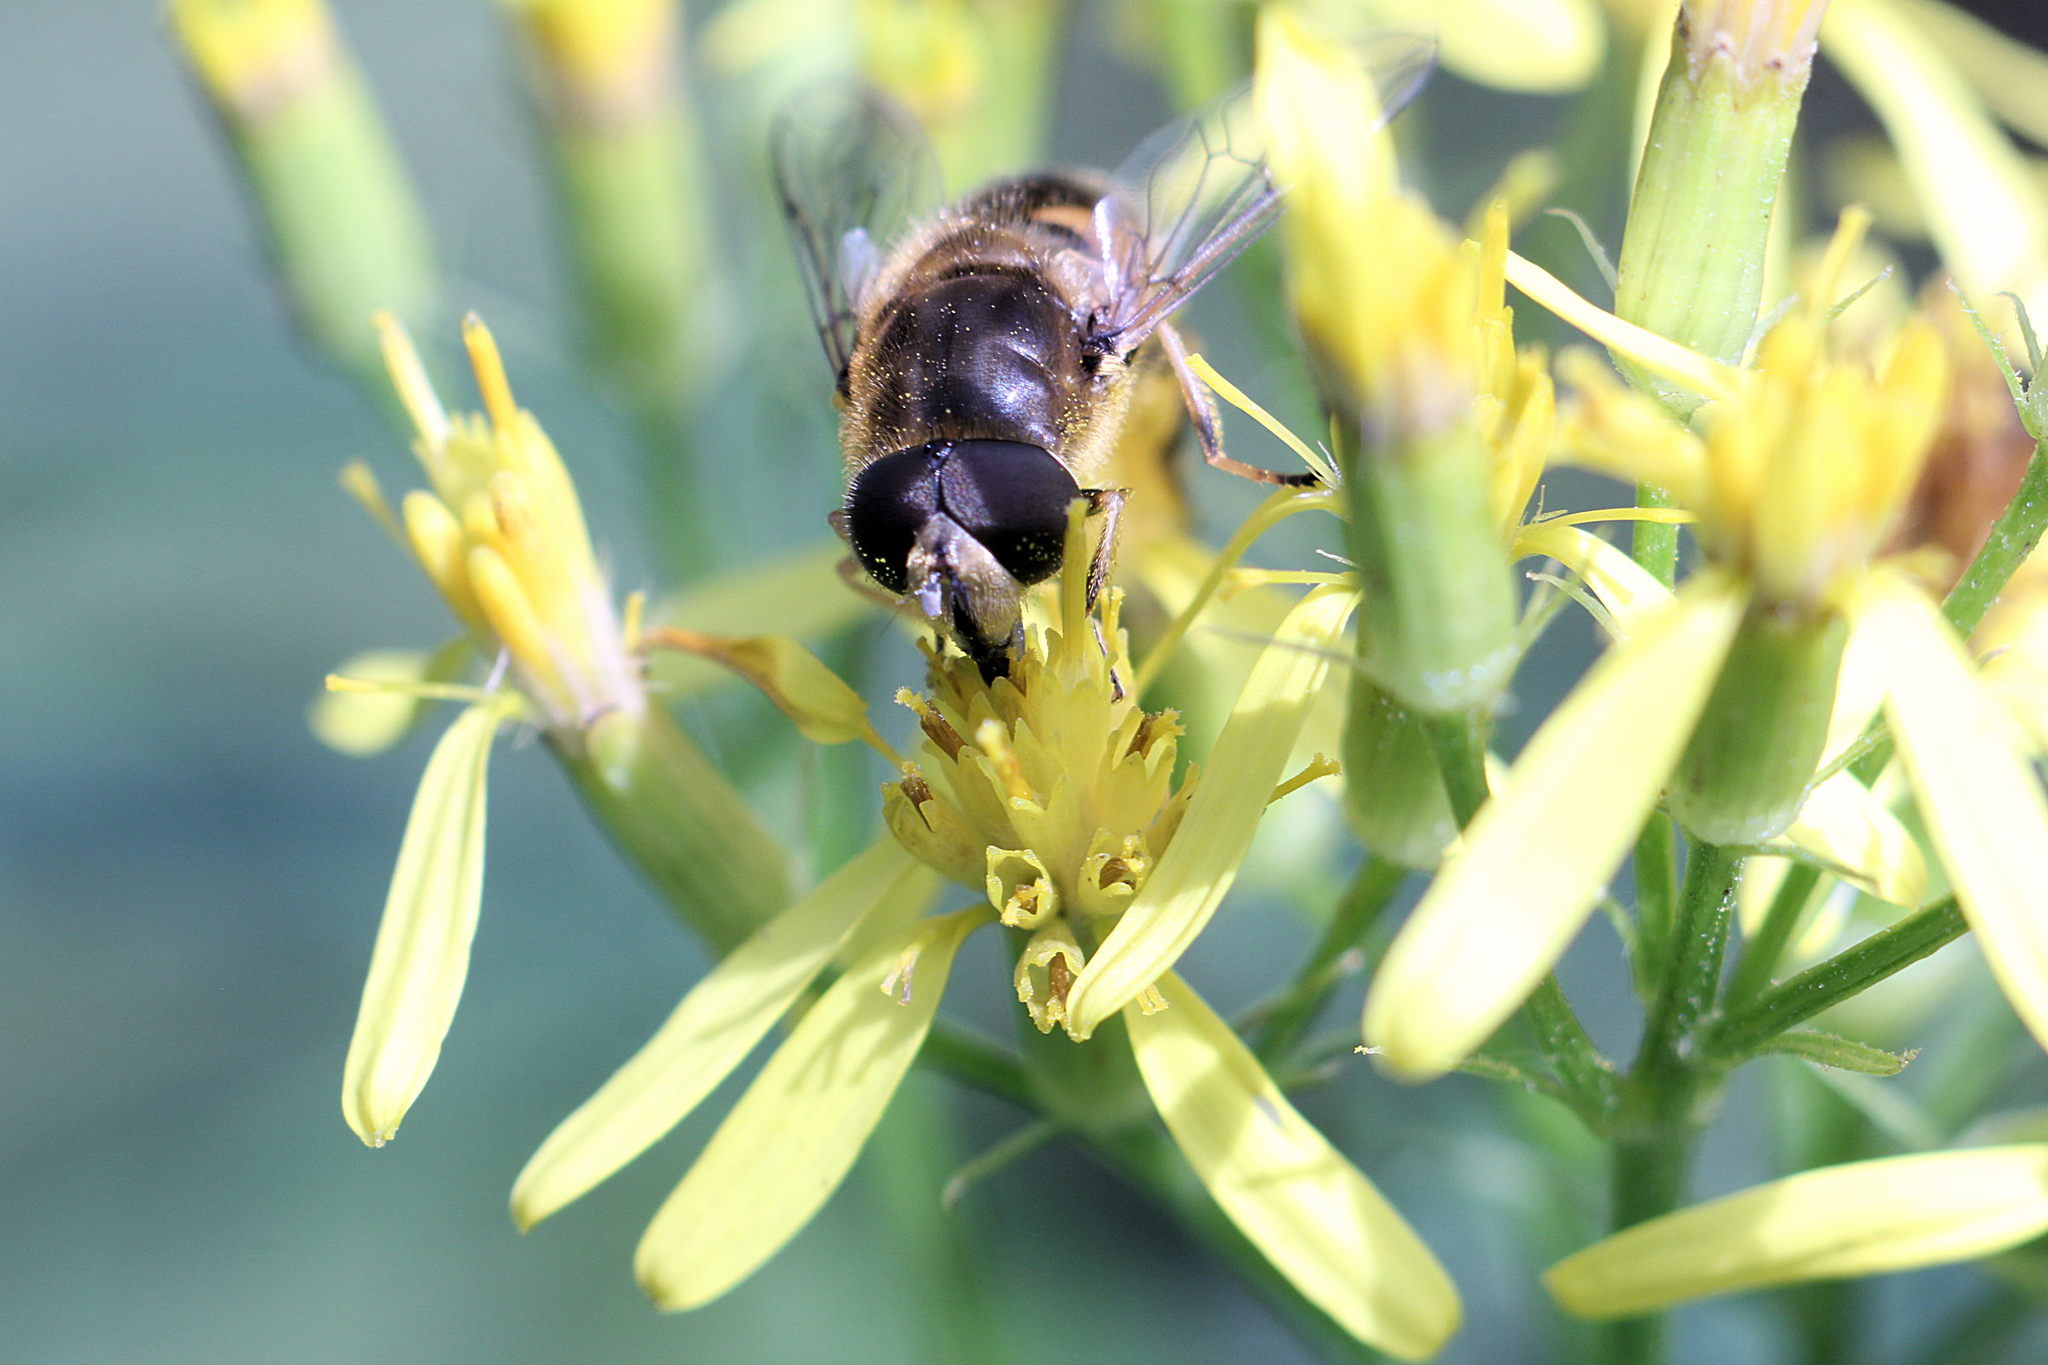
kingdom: Animalia
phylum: Arthropoda
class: Insecta
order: Diptera
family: Syrphidae
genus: Eristalis
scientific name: Eristalis nemorum
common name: Orange-spined drone fly
